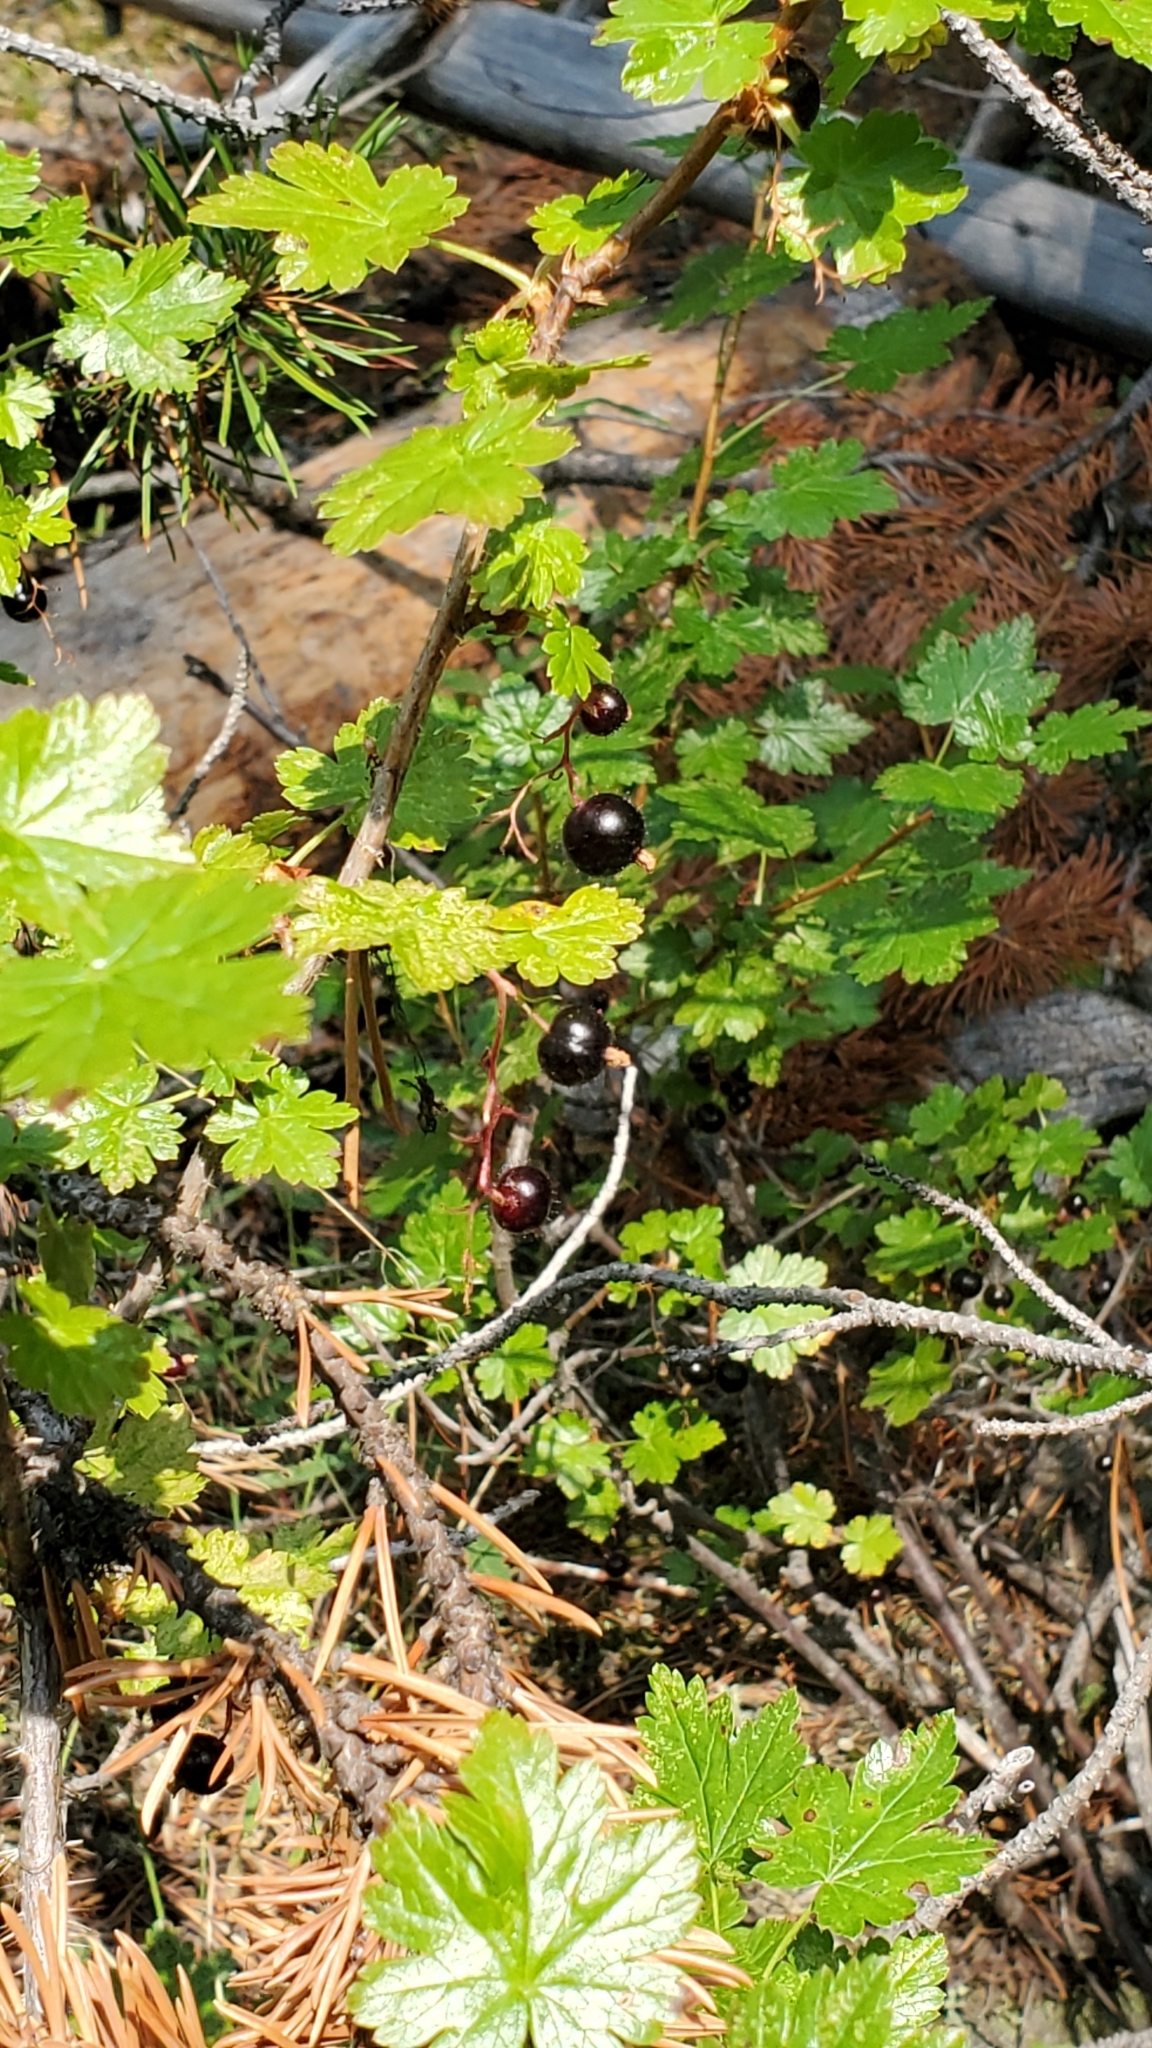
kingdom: Plantae
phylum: Tracheophyta
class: Magnoliopsida
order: Saxifragales
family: Grossulariaceae
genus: Ribes
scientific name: Ribes lacustre
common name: Black gooseberry
